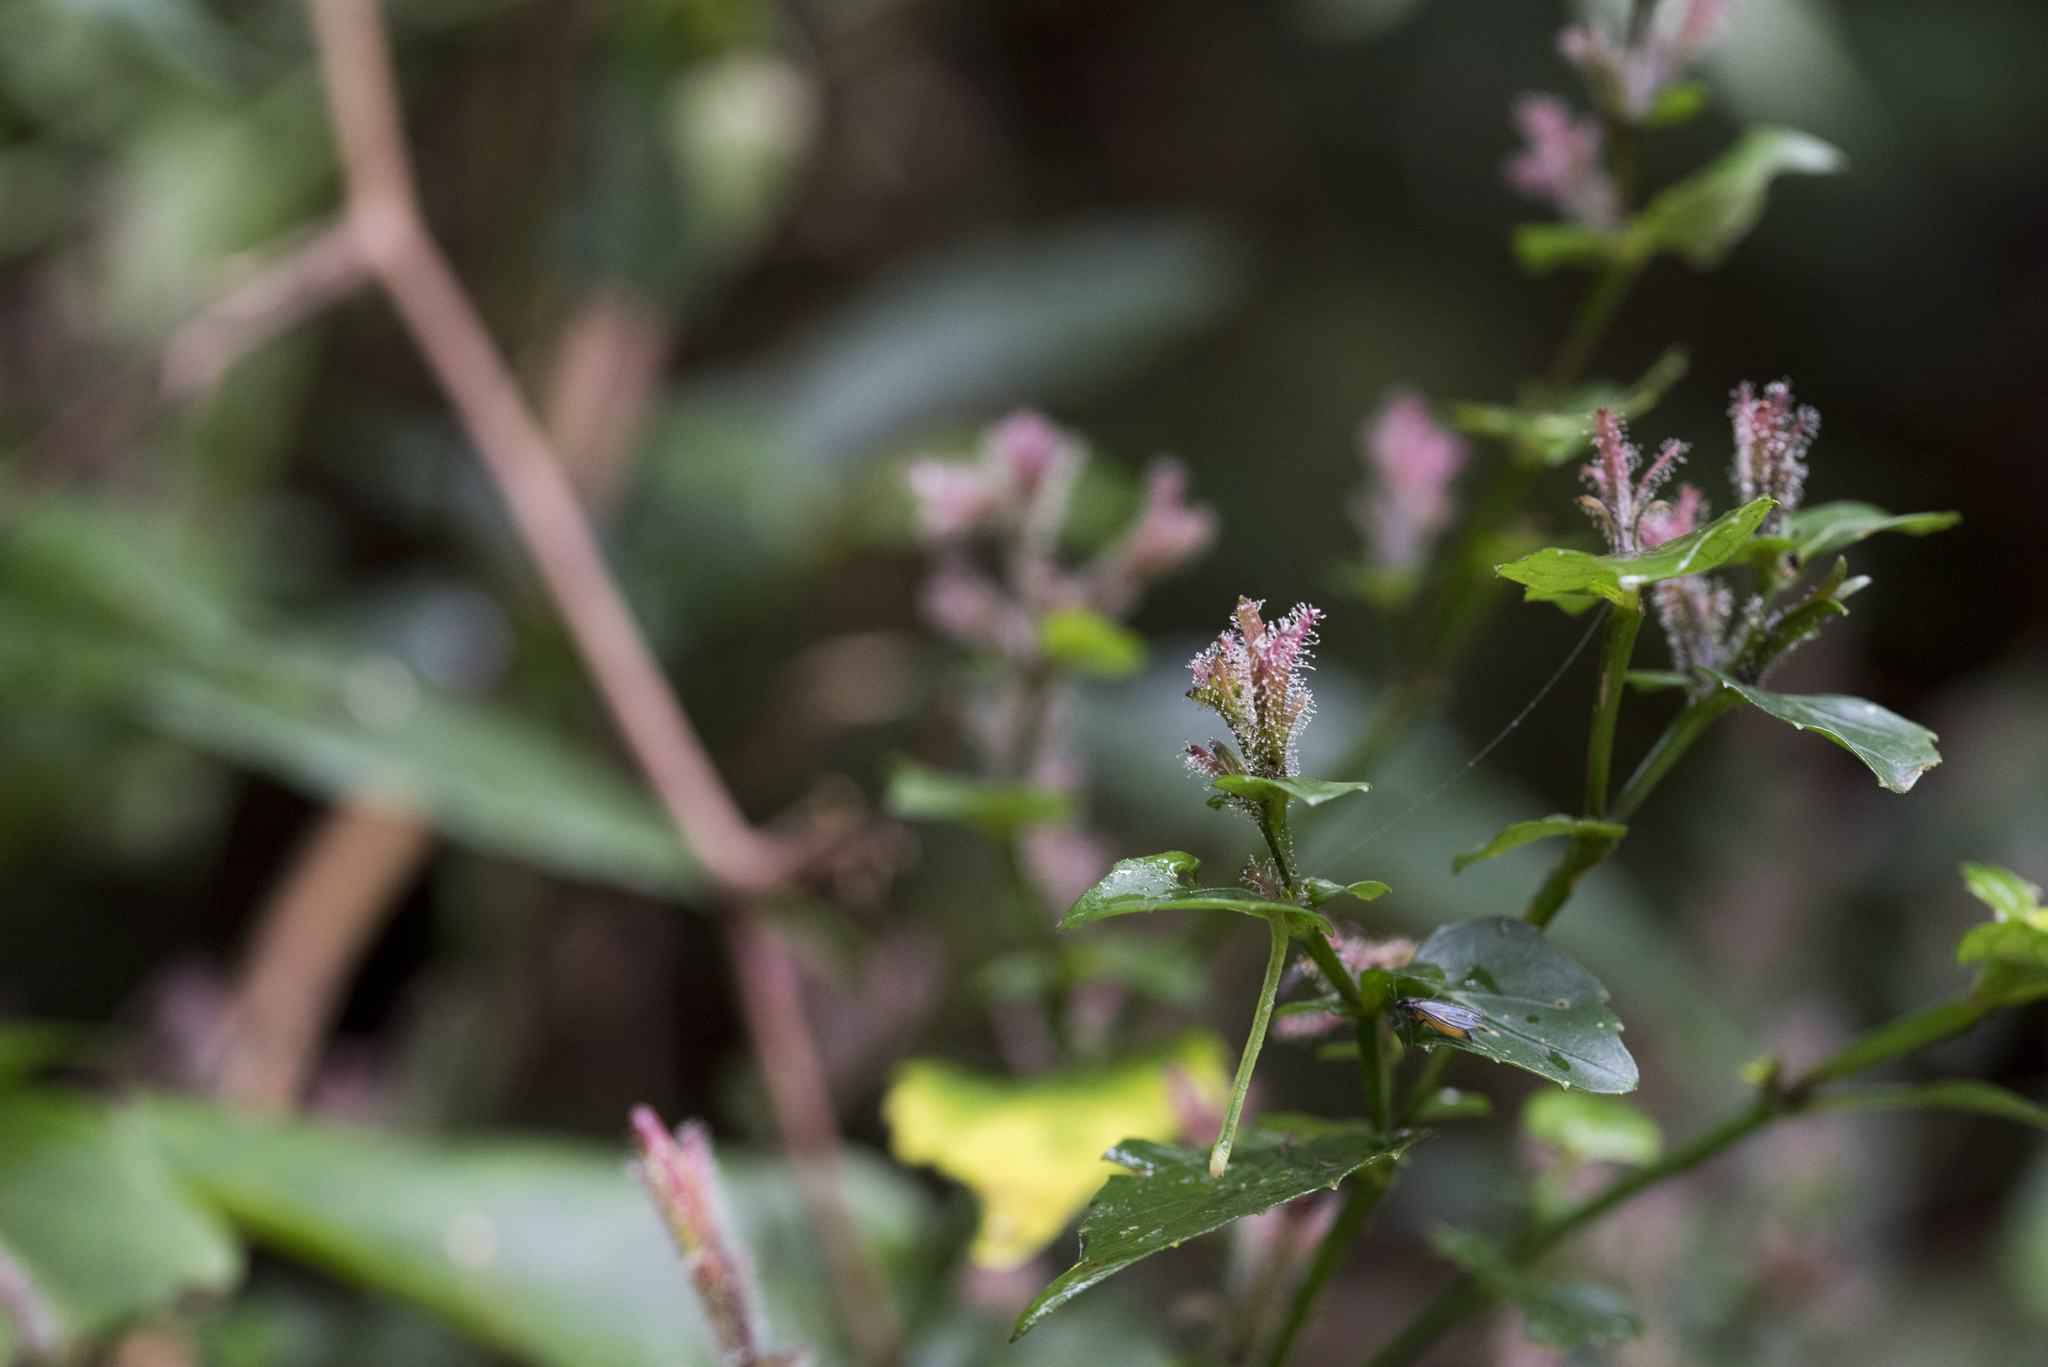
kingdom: Plantae
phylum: Tracheophyta
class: Magnoliopsida
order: Lamiales
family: Acanthaceae
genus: Strobilanthes
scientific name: Strobilanthes pentastemonoides
